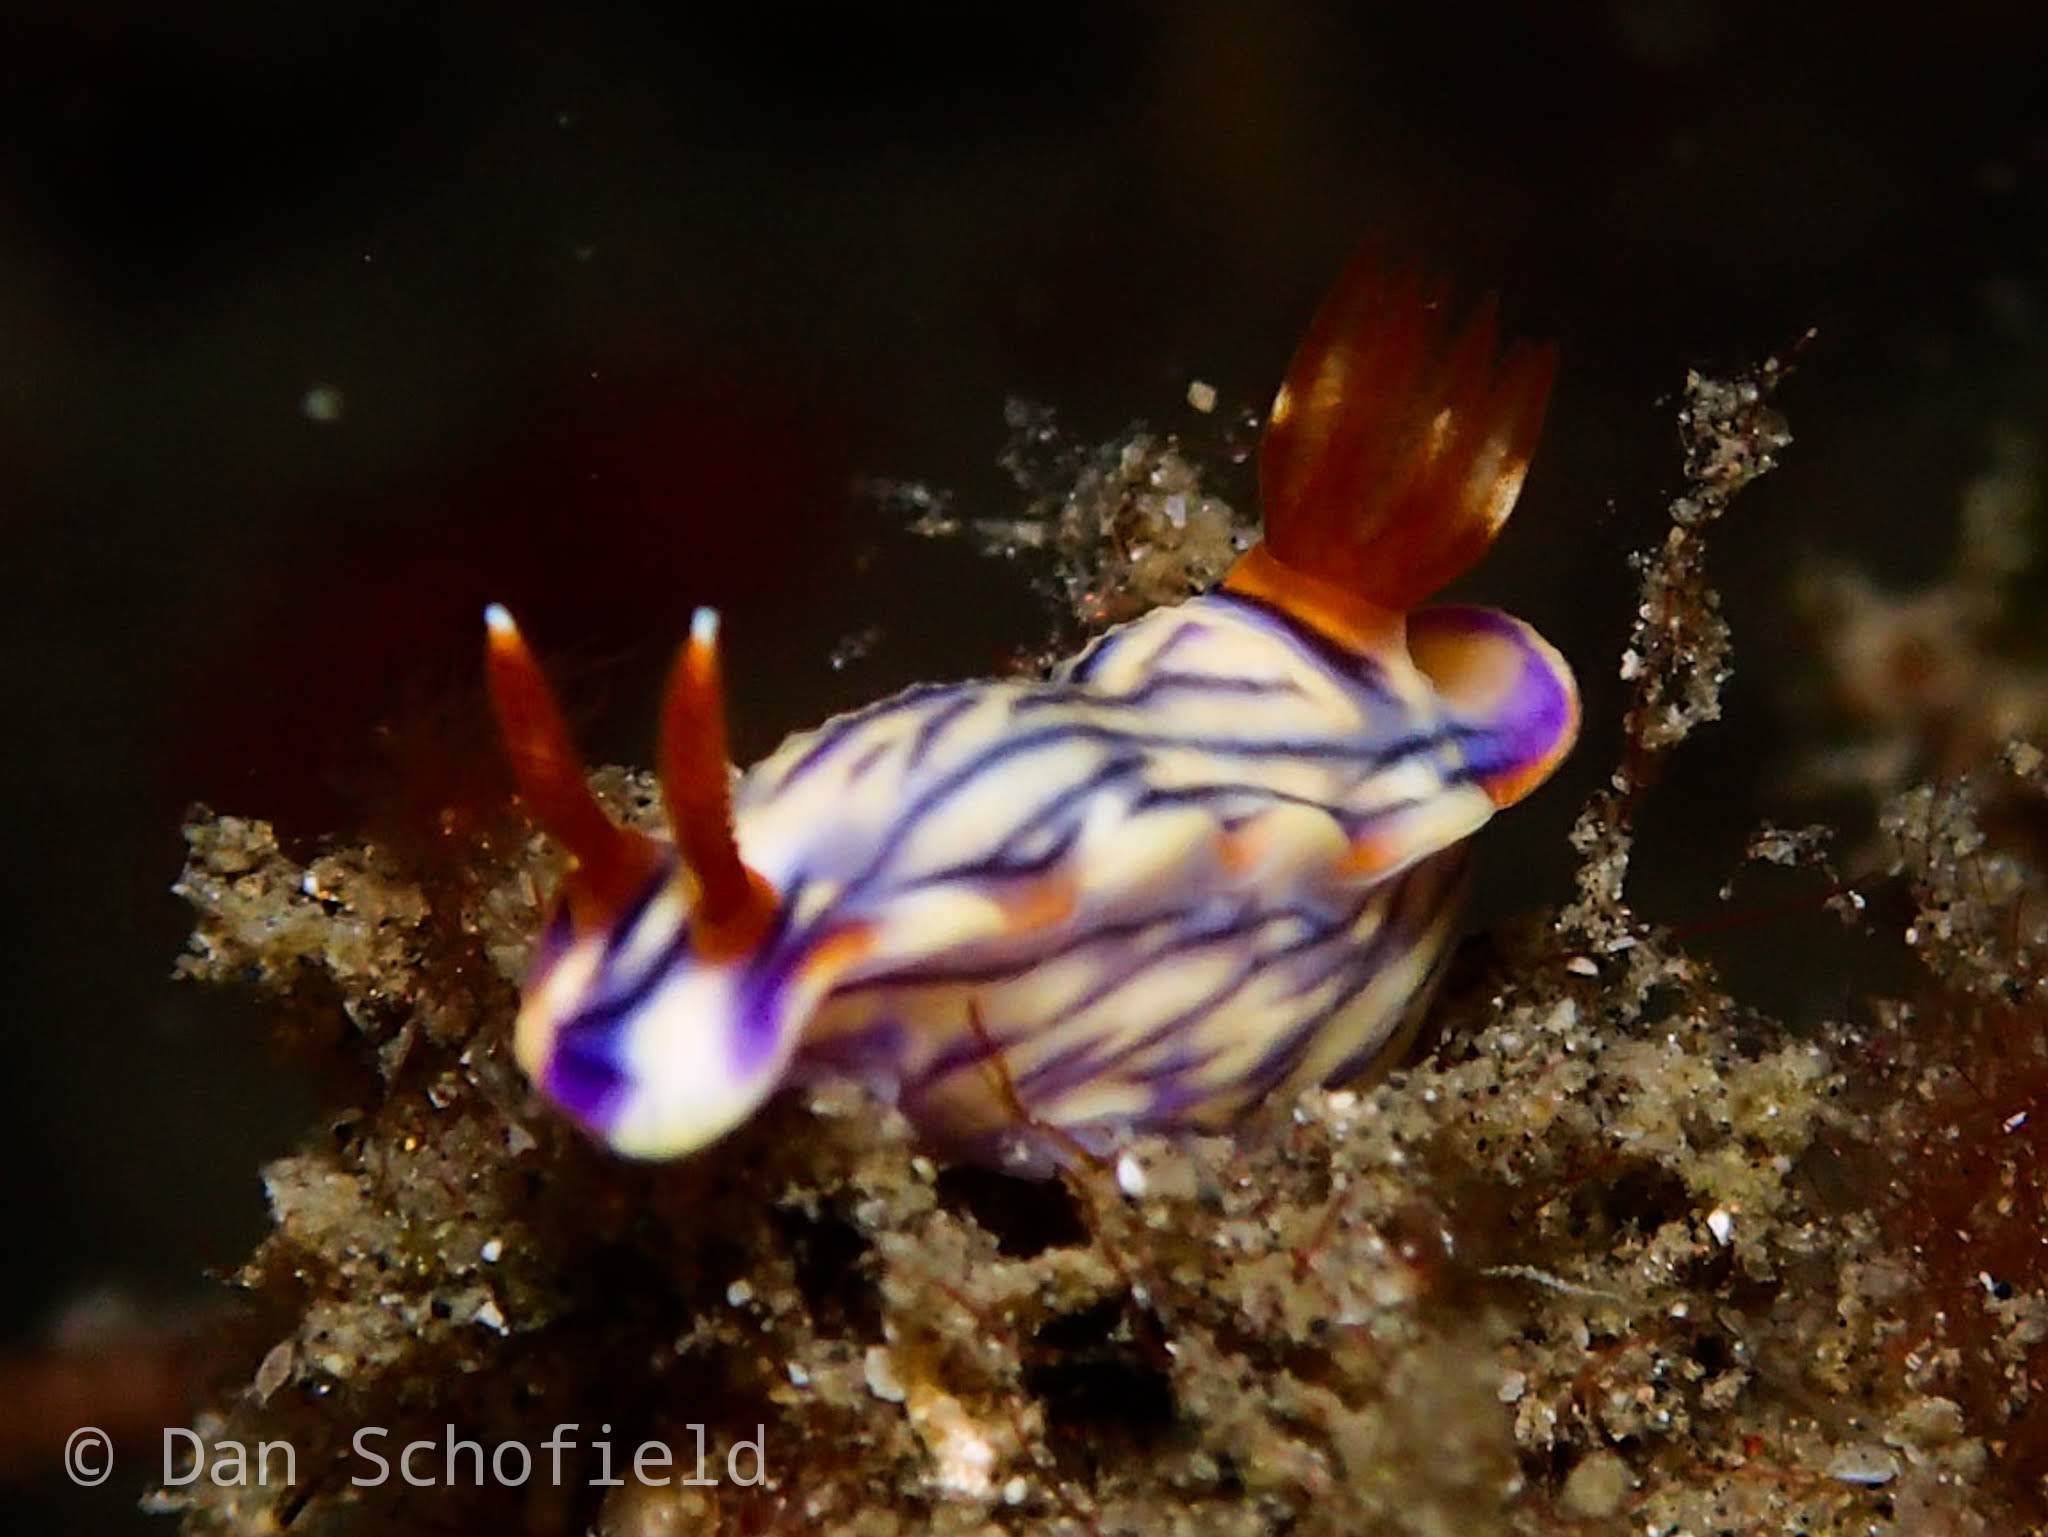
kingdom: Animalia
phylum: Mollusca
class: Gastropoda
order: Nudibranchia
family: Chromodorididae
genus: Hypselodoris
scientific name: Hypselodoris zephyra
